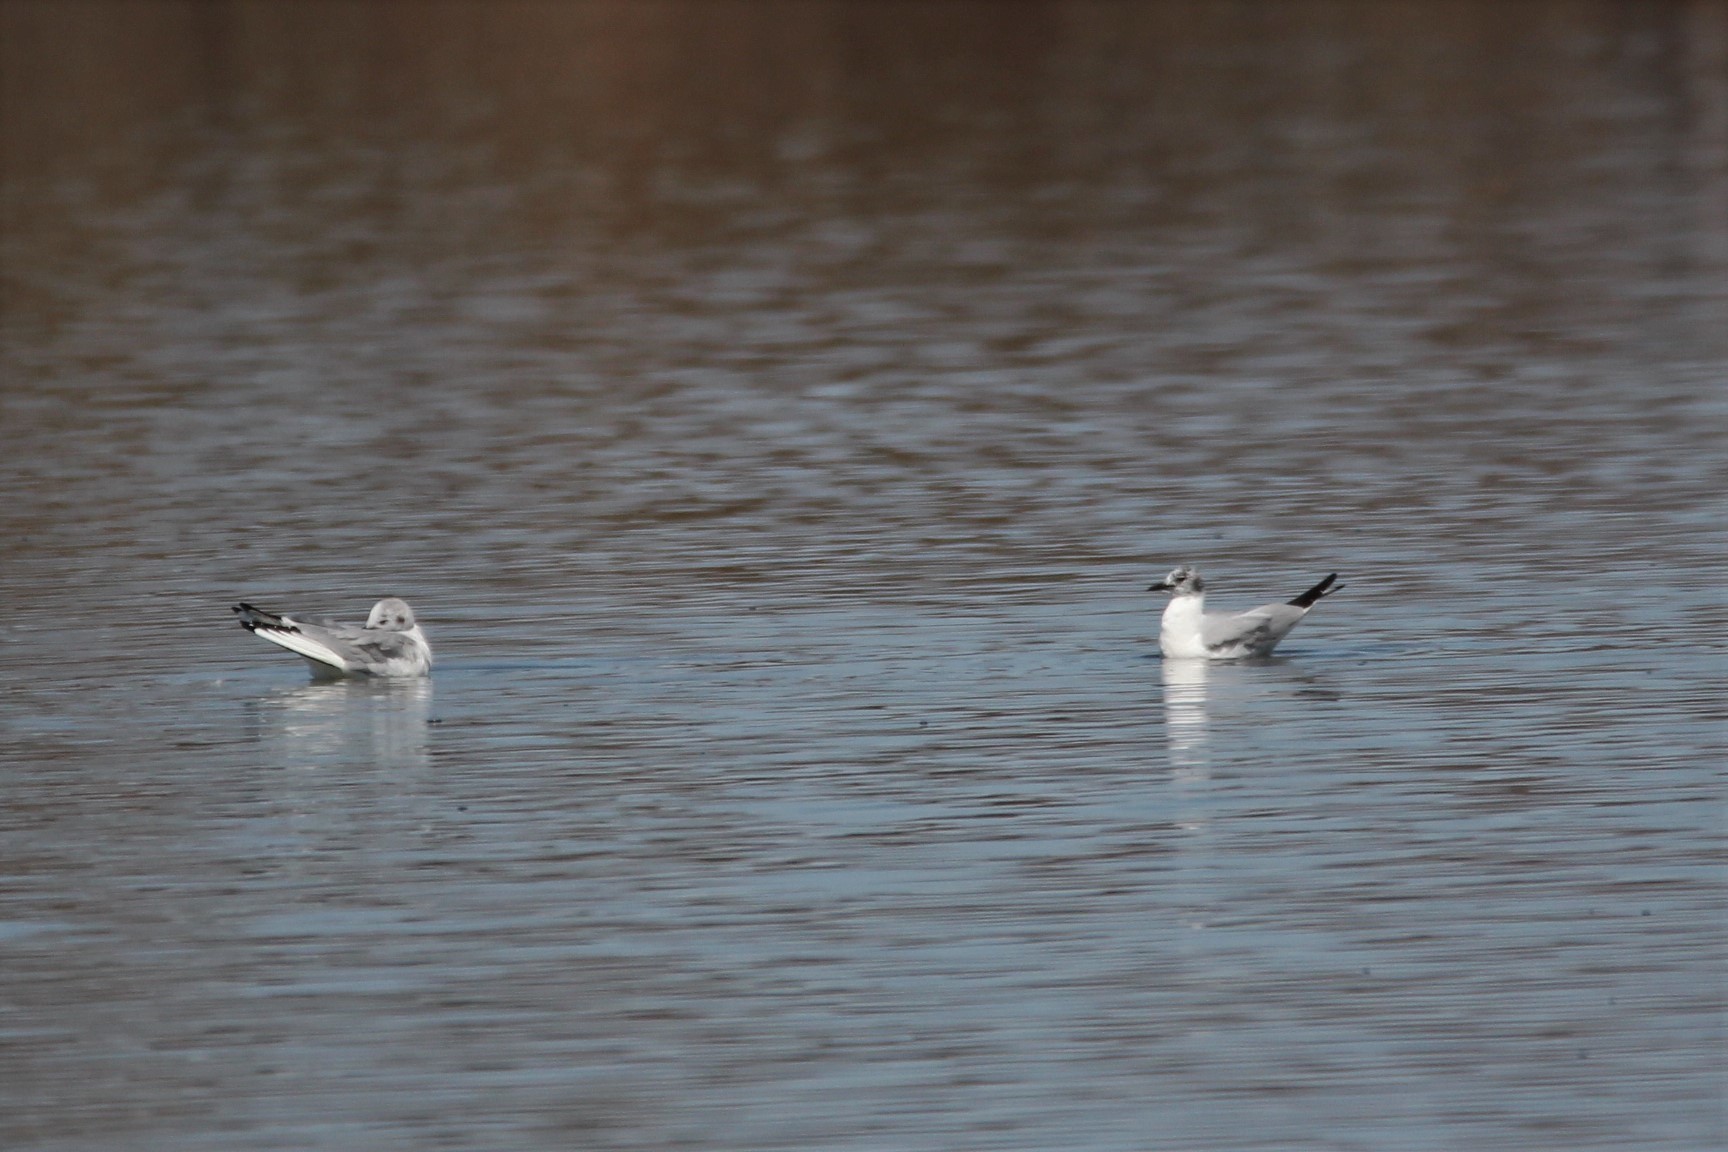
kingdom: Animalia
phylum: Chordata
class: Aves
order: Charadriiformes
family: Laridae
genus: Chroicocephalus
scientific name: Chroicocephalus philadelphia
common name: Bonaparte's gull
